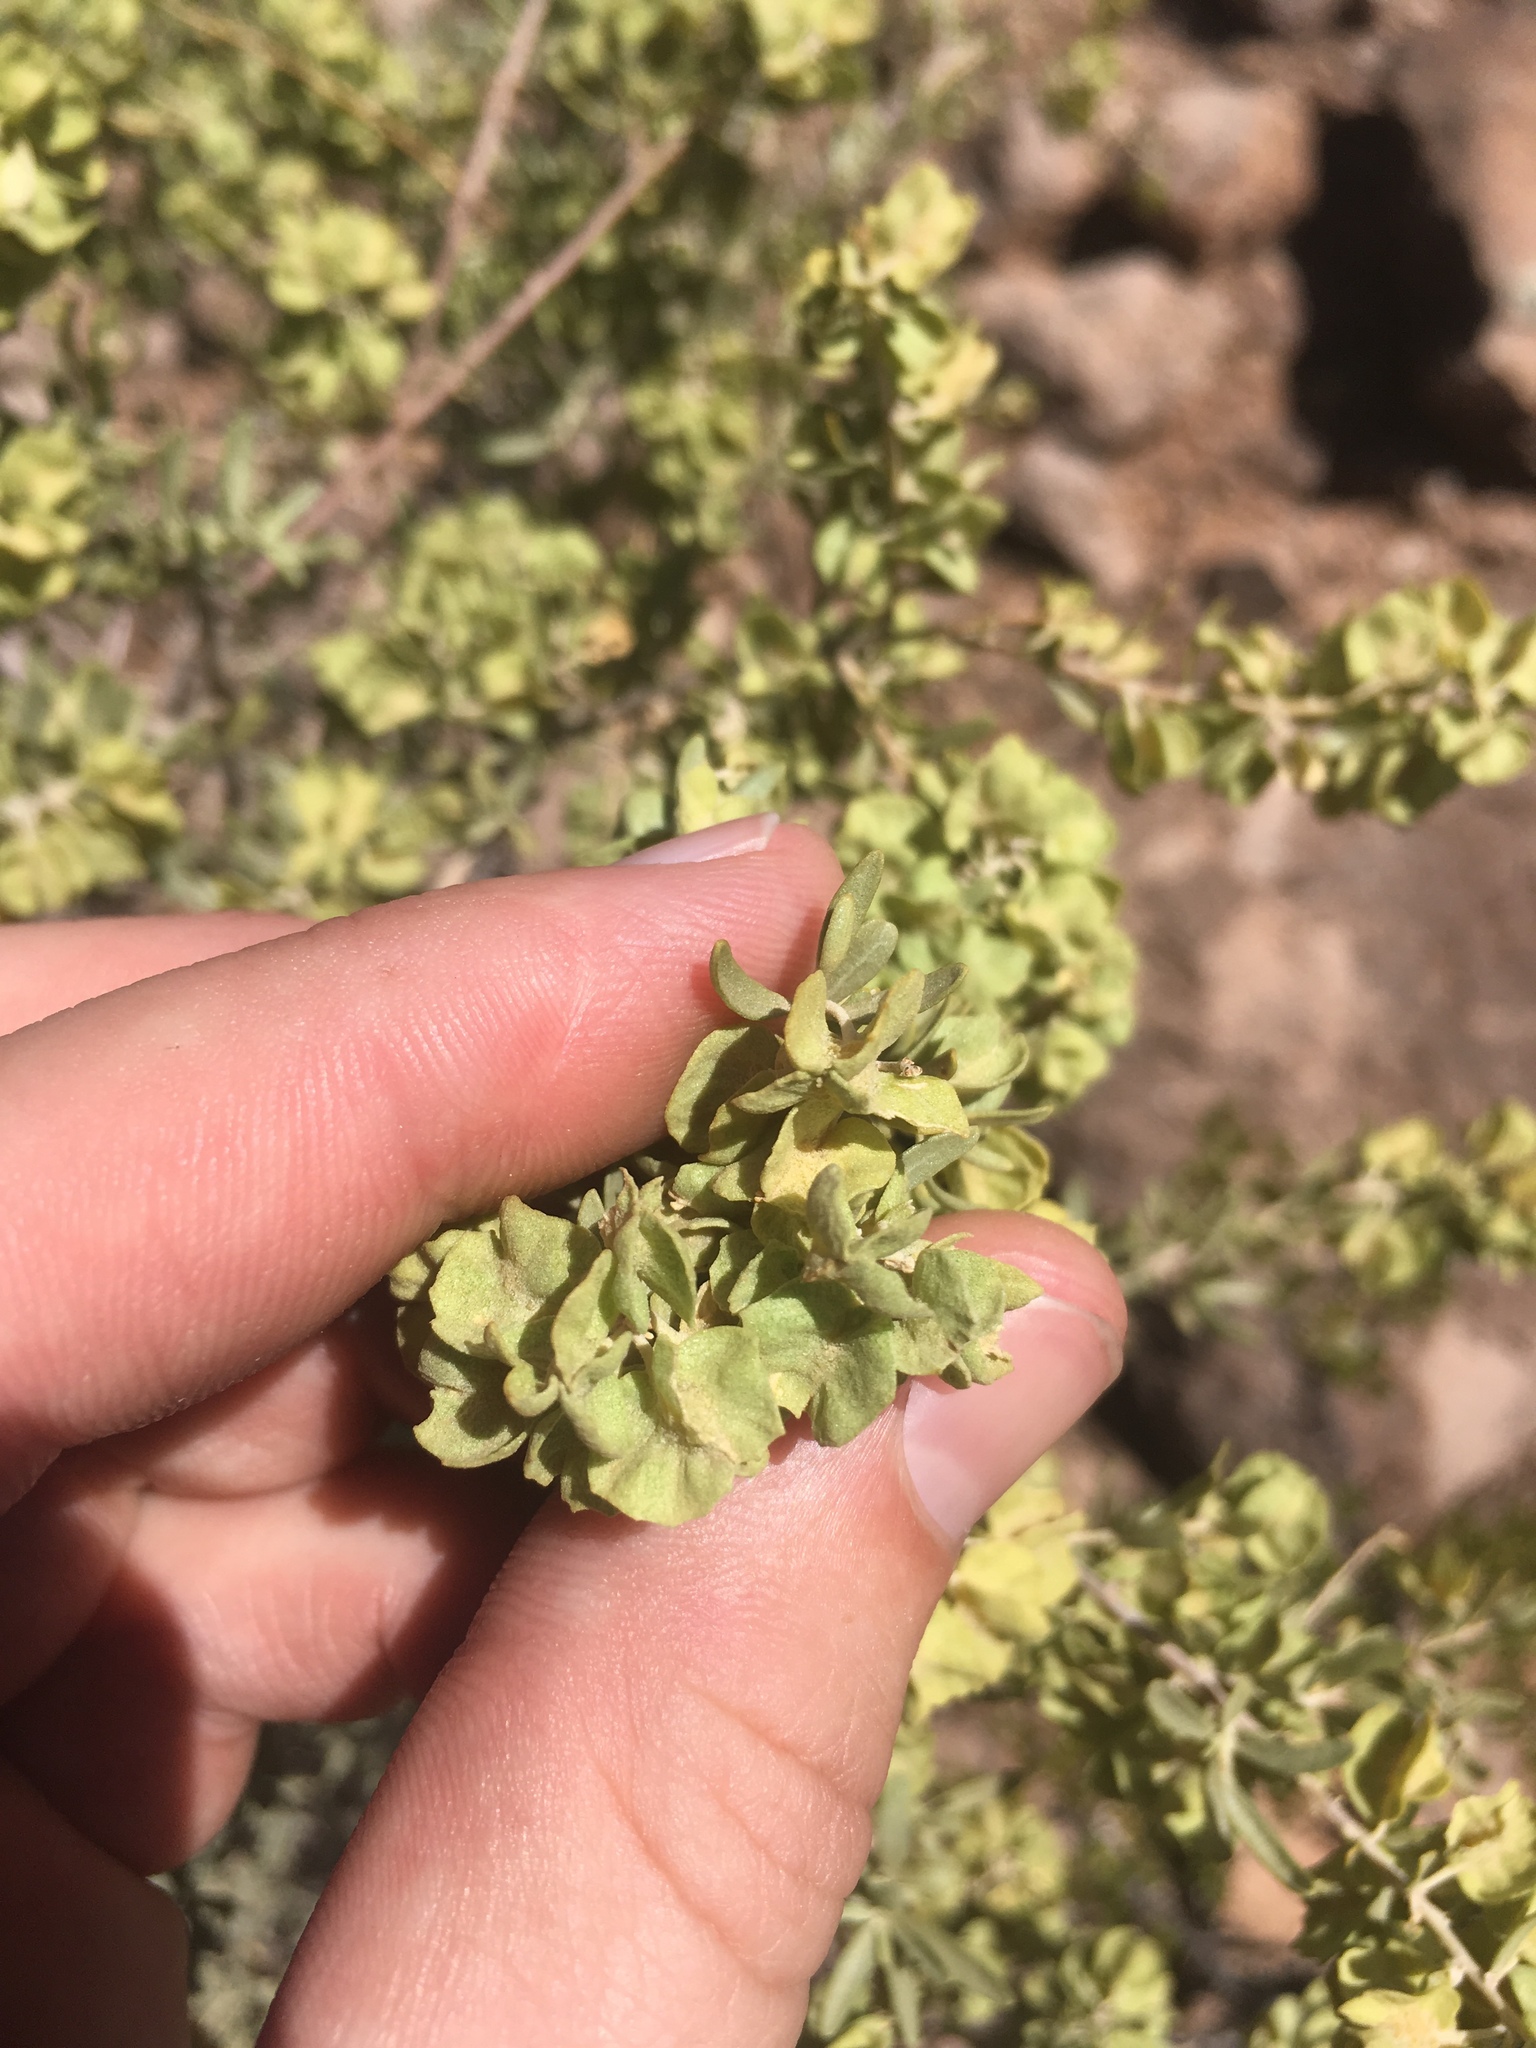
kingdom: Plantae
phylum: Tracheophyta
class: Magnoliopsida
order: Caryophyllales
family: Amaranthaceae
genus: Atriplex
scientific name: Atriplex canescens
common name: Four-wing saltbush
